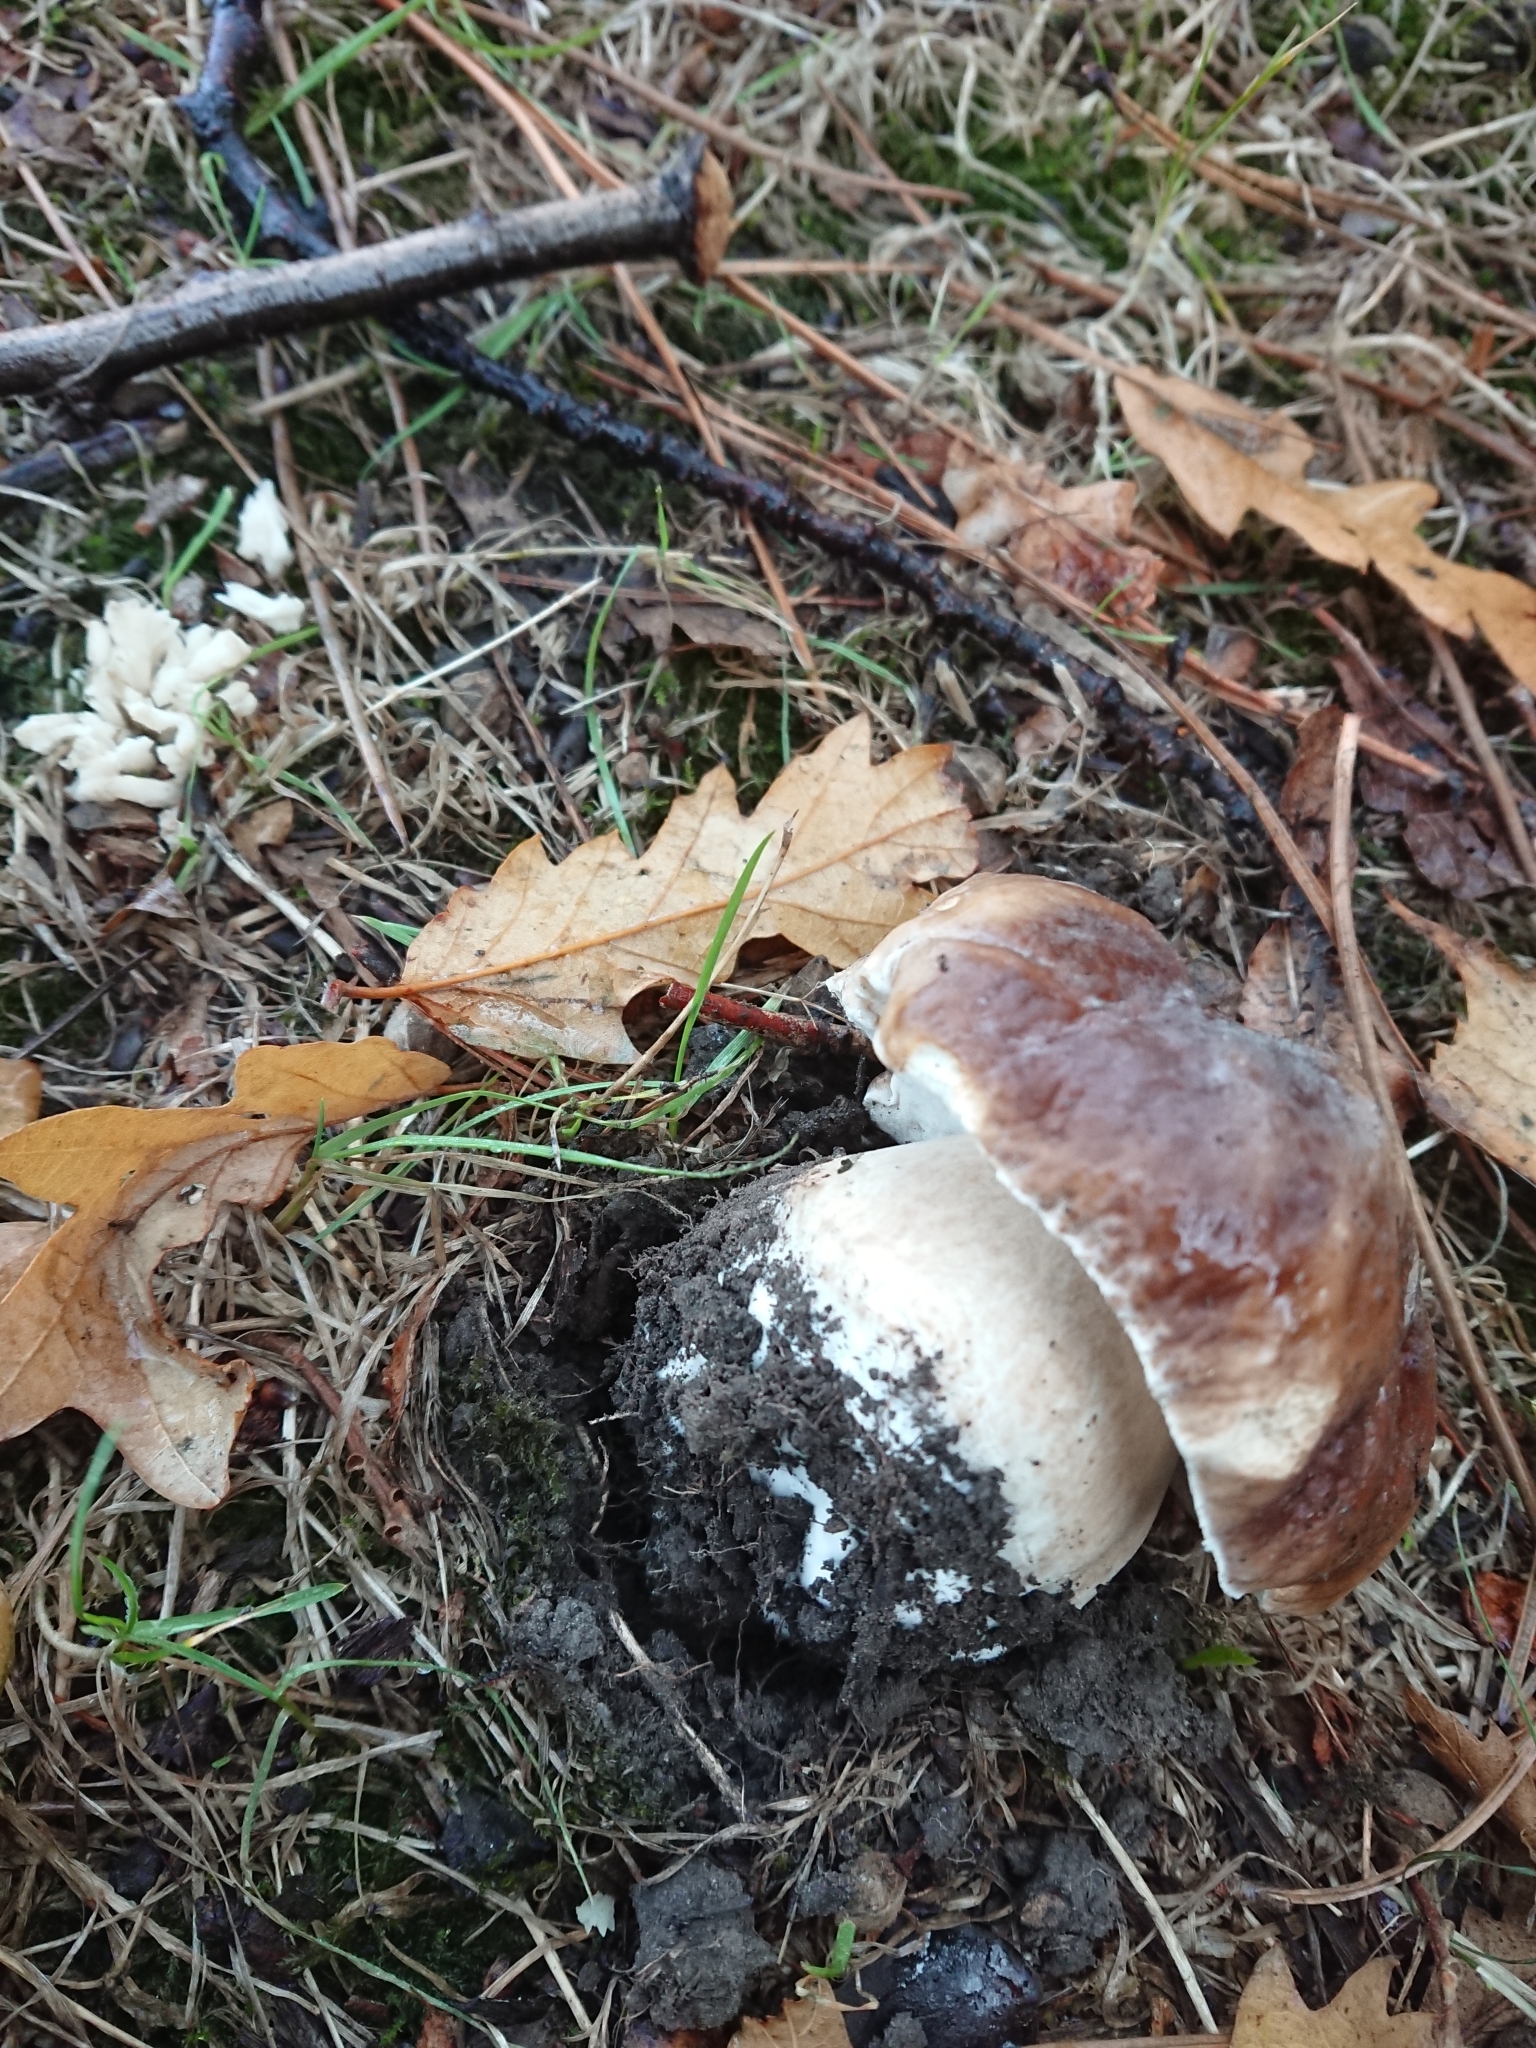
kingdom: Fungi
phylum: Basidiomycota
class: Agaricomycetes
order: Boletales
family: Boletaceae
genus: Boletus
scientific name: Boletus edulis
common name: Cep
